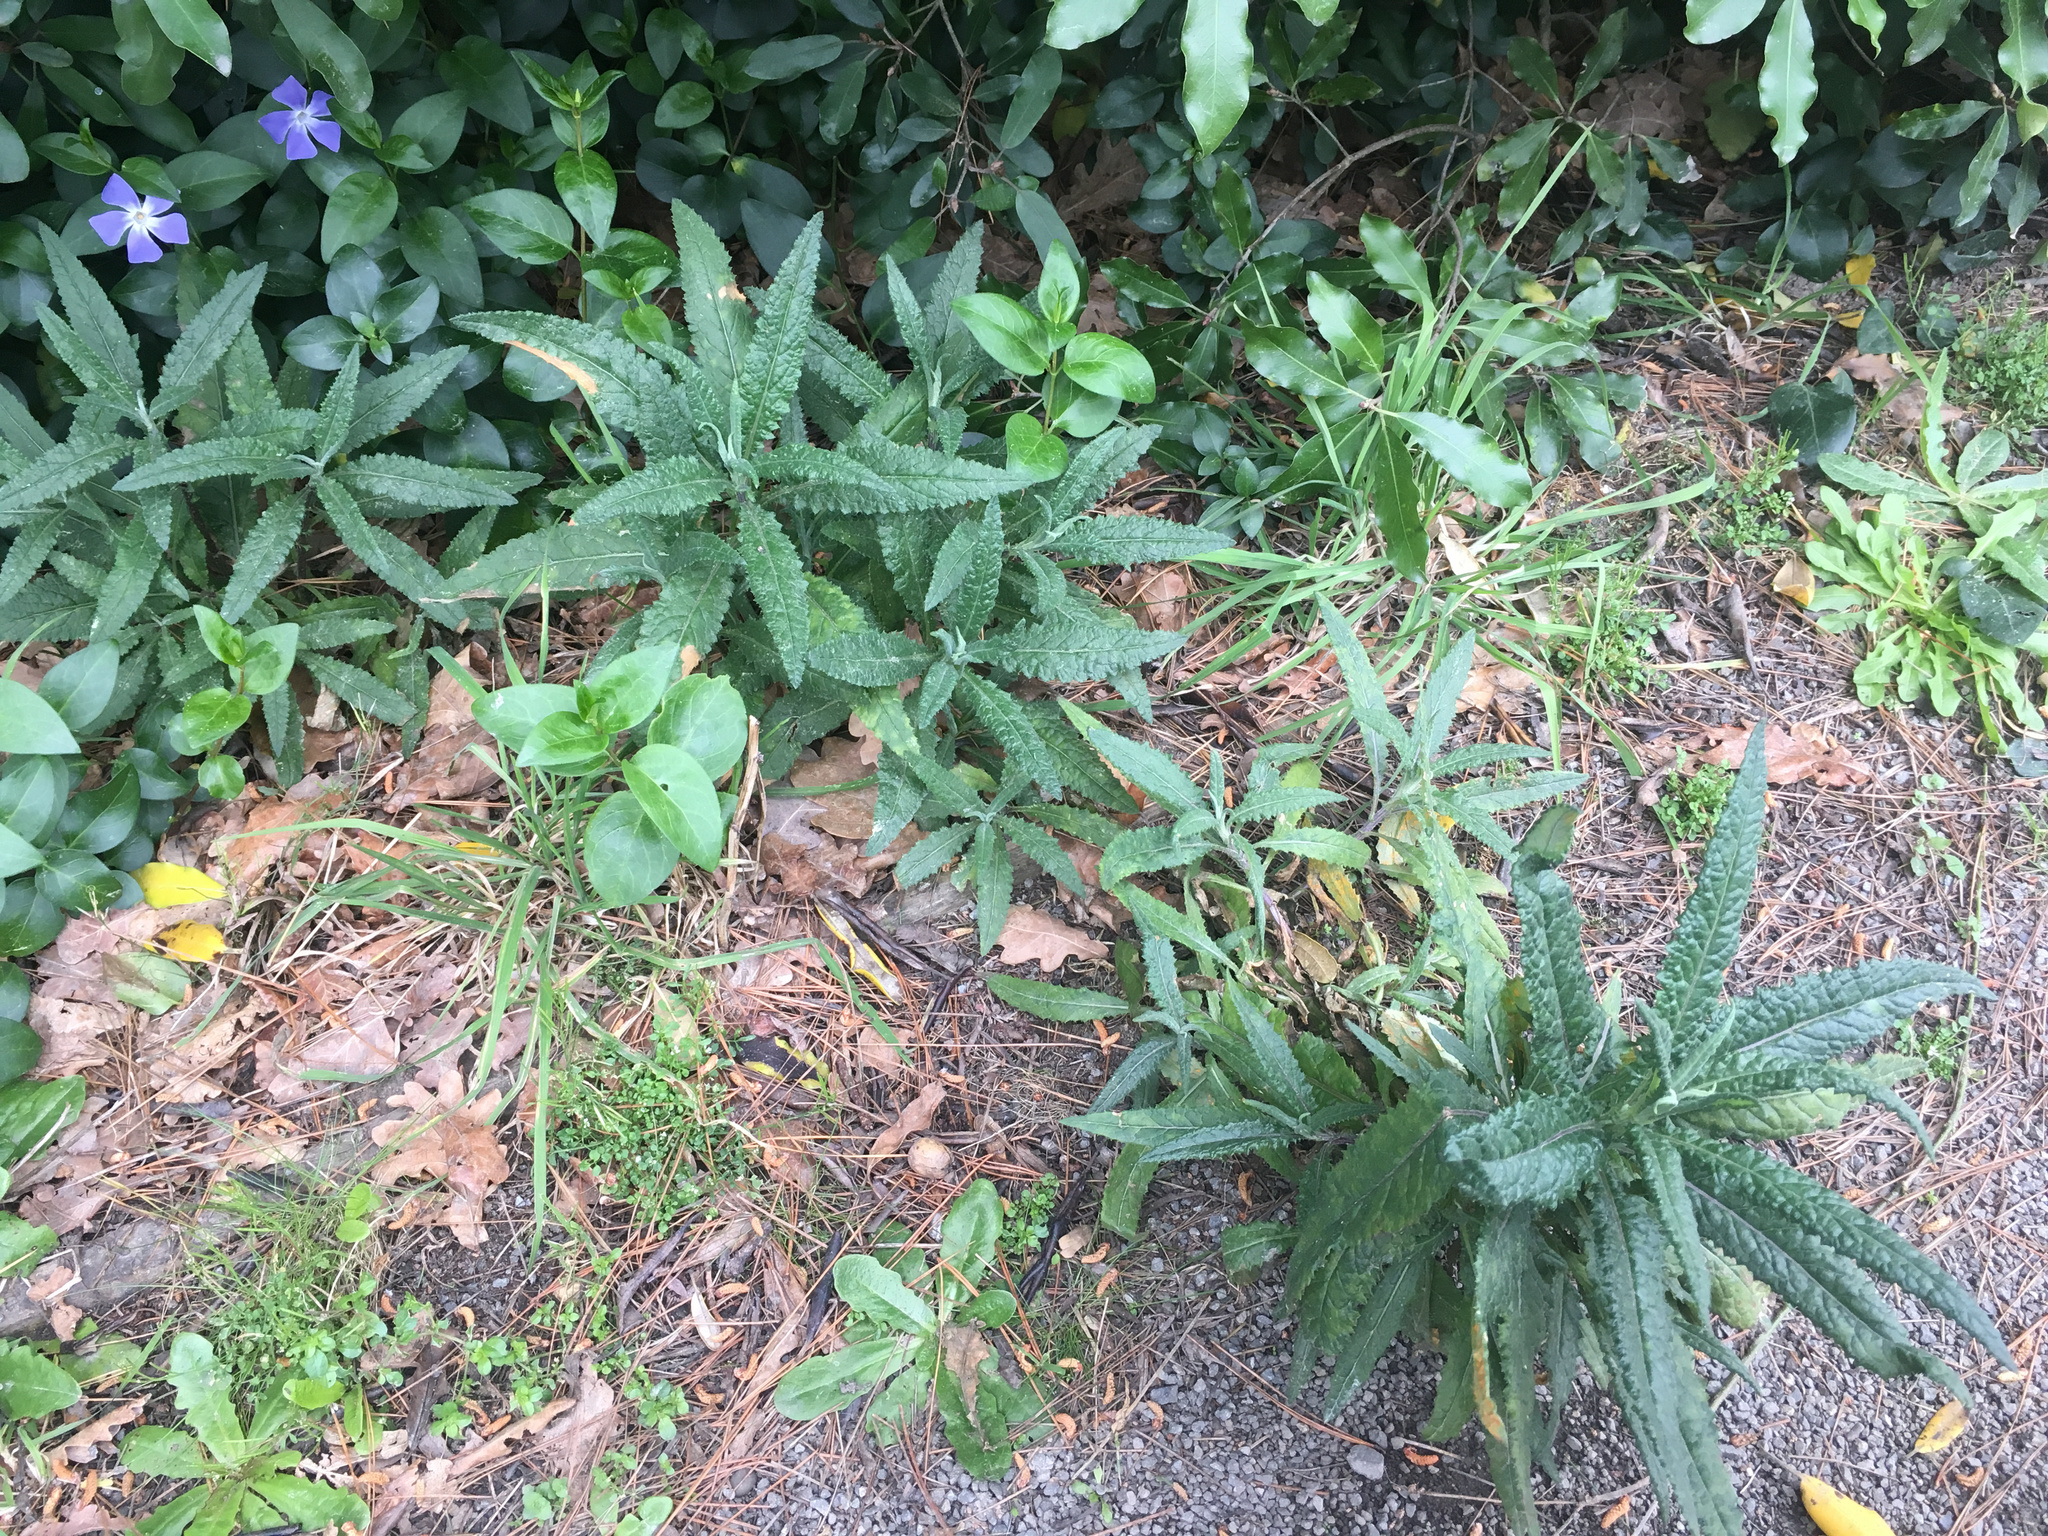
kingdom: Plantae
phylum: Tracheophyta
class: Magnoliopsida
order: Asterales
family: Asteraceae
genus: Senecio
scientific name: Senecio minimus
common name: Toothed fireweed
